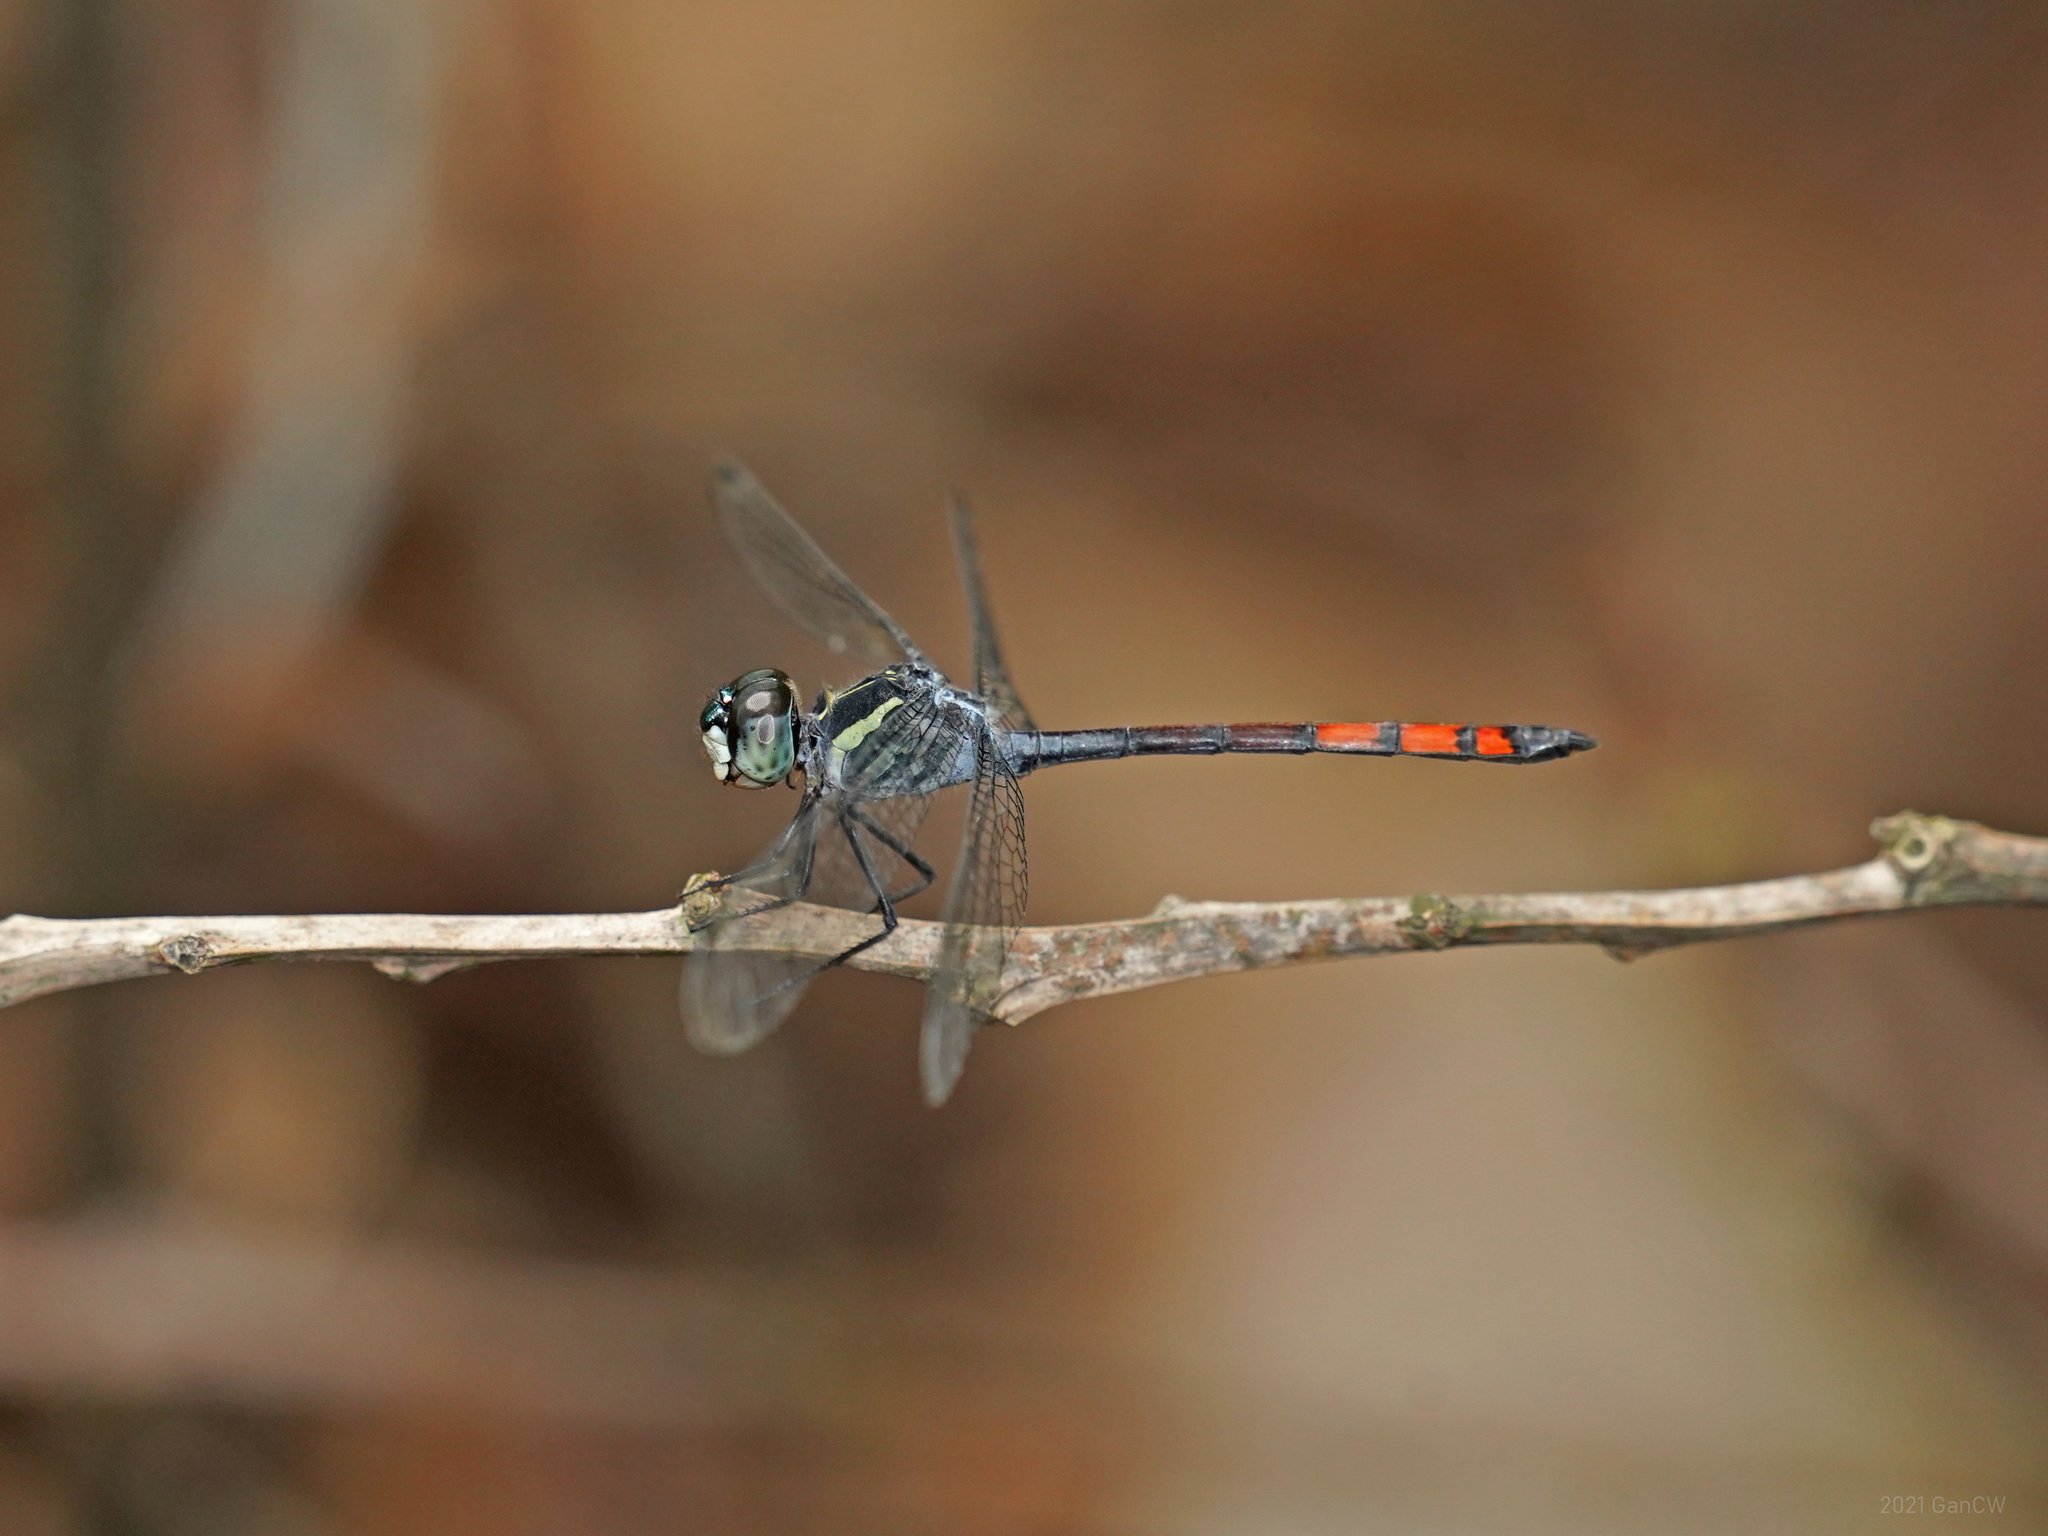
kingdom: Animalia
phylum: Arthropoda
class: Insecta
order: Odonata
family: Libellulidae
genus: Nesoxenia
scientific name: Nesoxenia lineata
